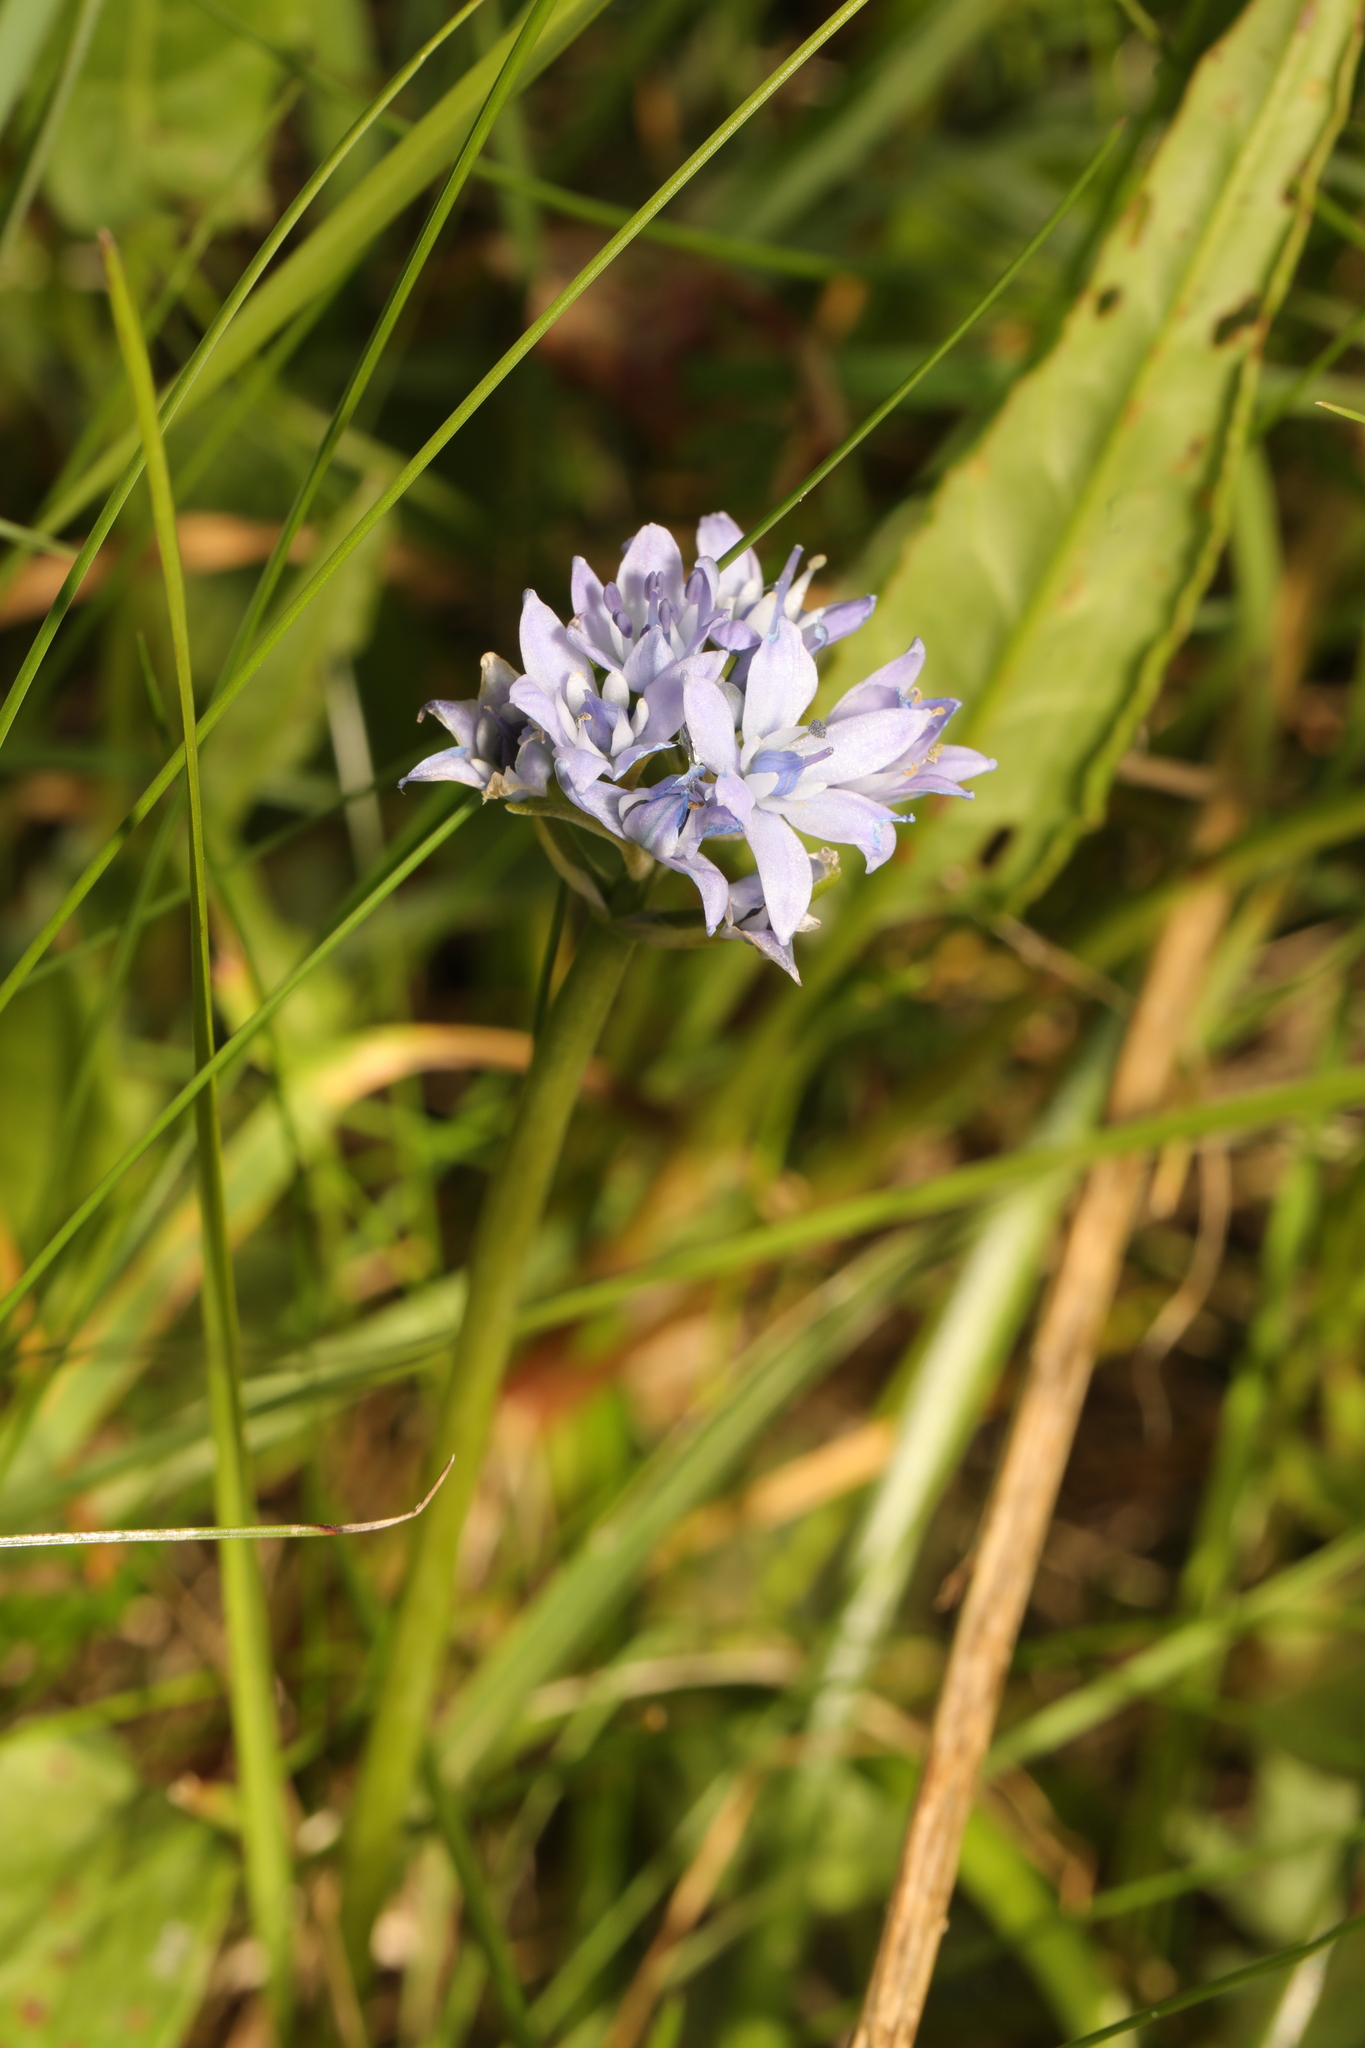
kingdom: Plantae
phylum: Tracheophyta
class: Liliopsida
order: Asparagales
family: Asparagaceae
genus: Scilla
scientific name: Scilla verna
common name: Spring squill
